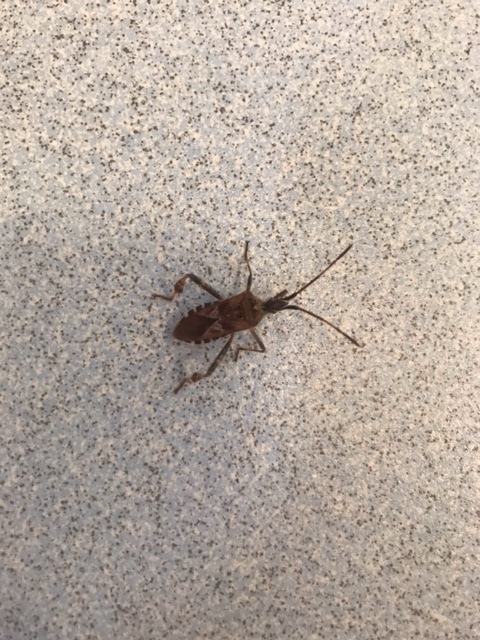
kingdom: Animalia
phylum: Arthropoda
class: Insecta
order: Hemiptera
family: Coreidae
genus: Leptoglossus
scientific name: Leptoglossus occidentalis
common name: Western conifer-seed bug
